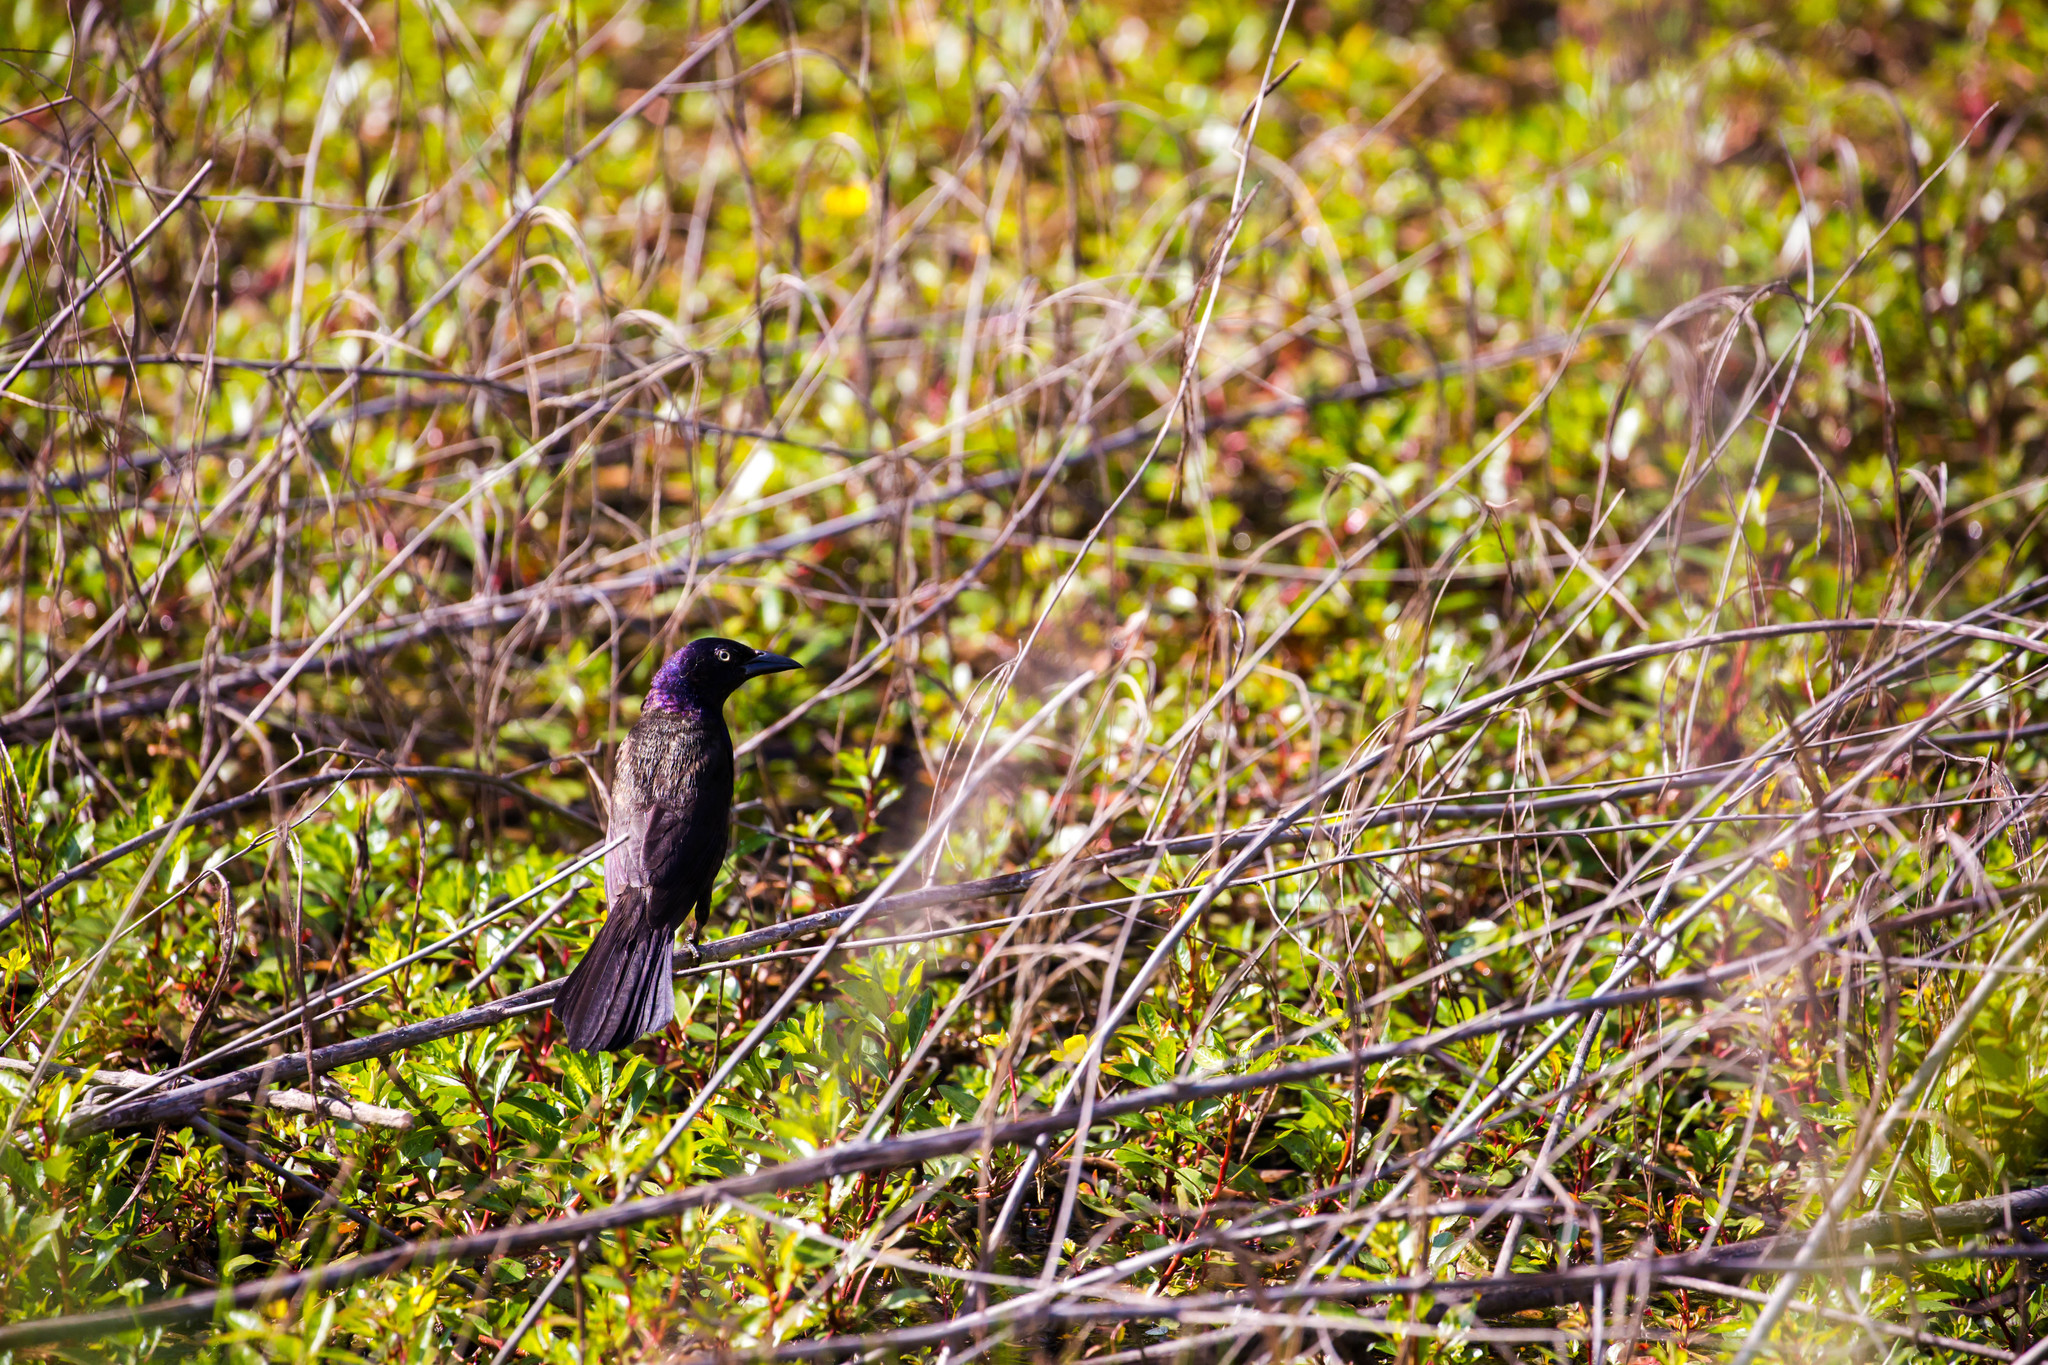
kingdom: Animalia
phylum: Chordata
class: Aves
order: Passeriformes
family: Icteridae
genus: Quiscalus
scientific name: Quiscalus quiscula
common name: Common grackle
